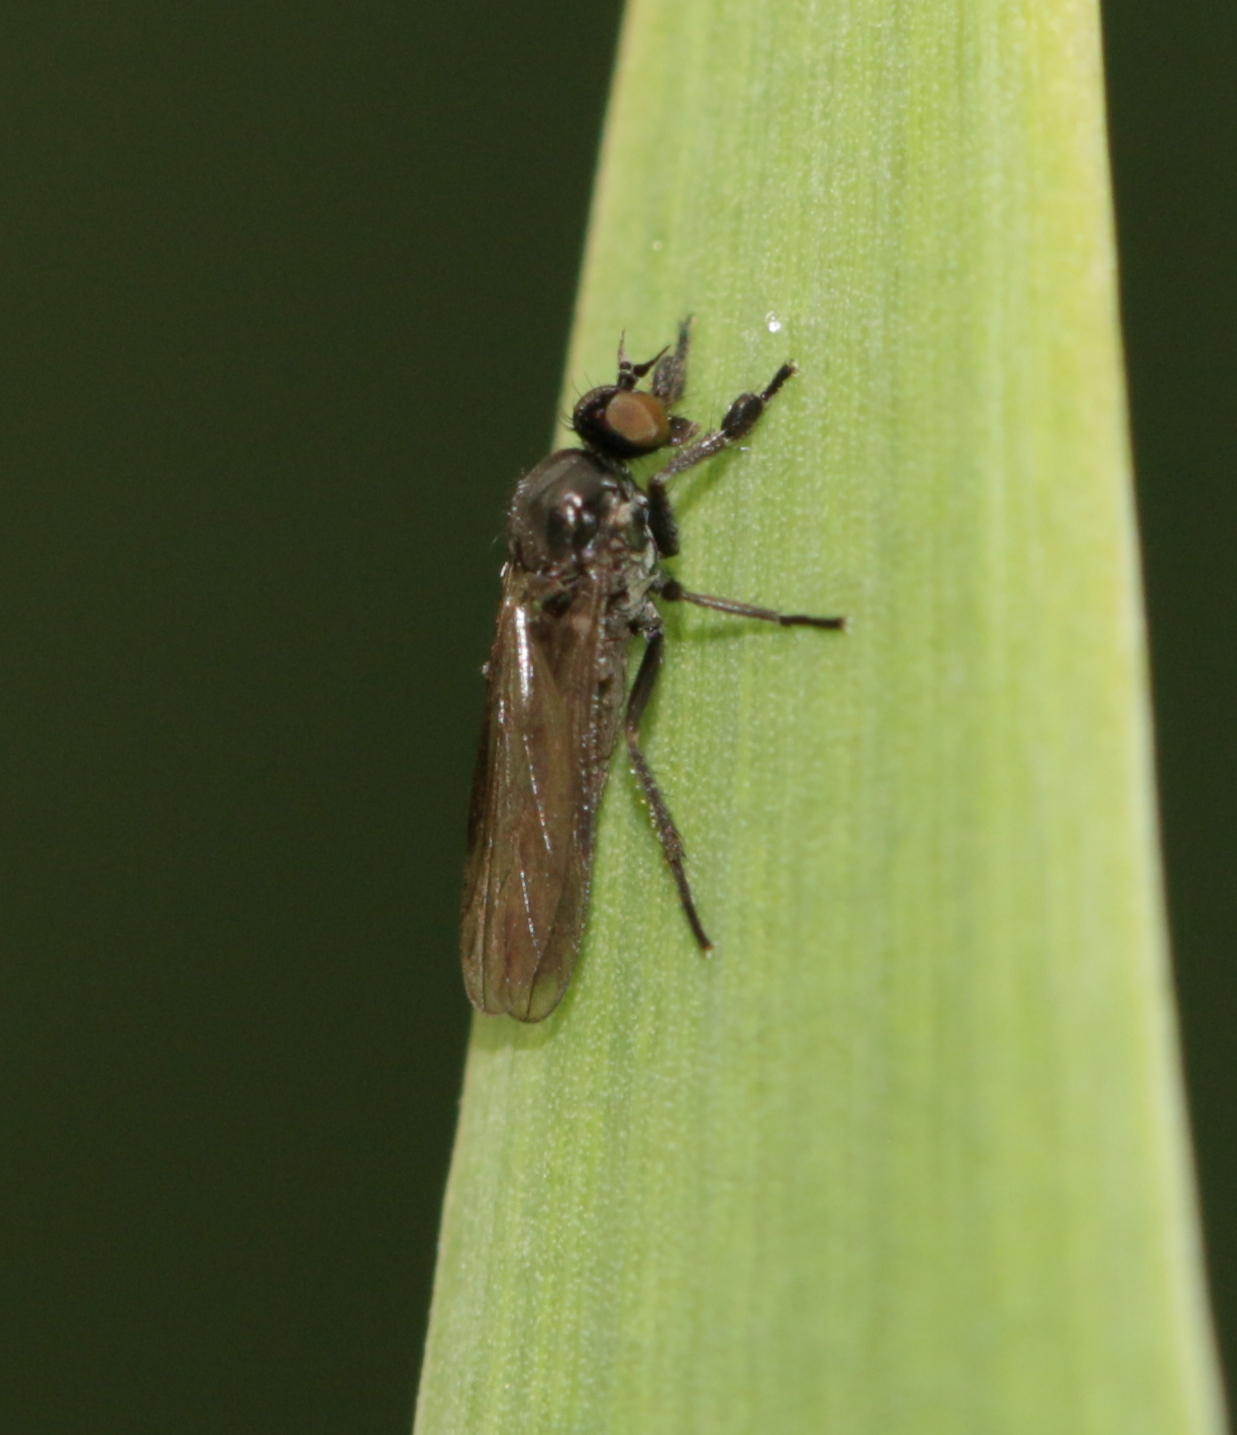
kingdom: Animalia
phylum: Arthropoda
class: Insecta
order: Diptera
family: Empididae
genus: Hilara
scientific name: Hilara
